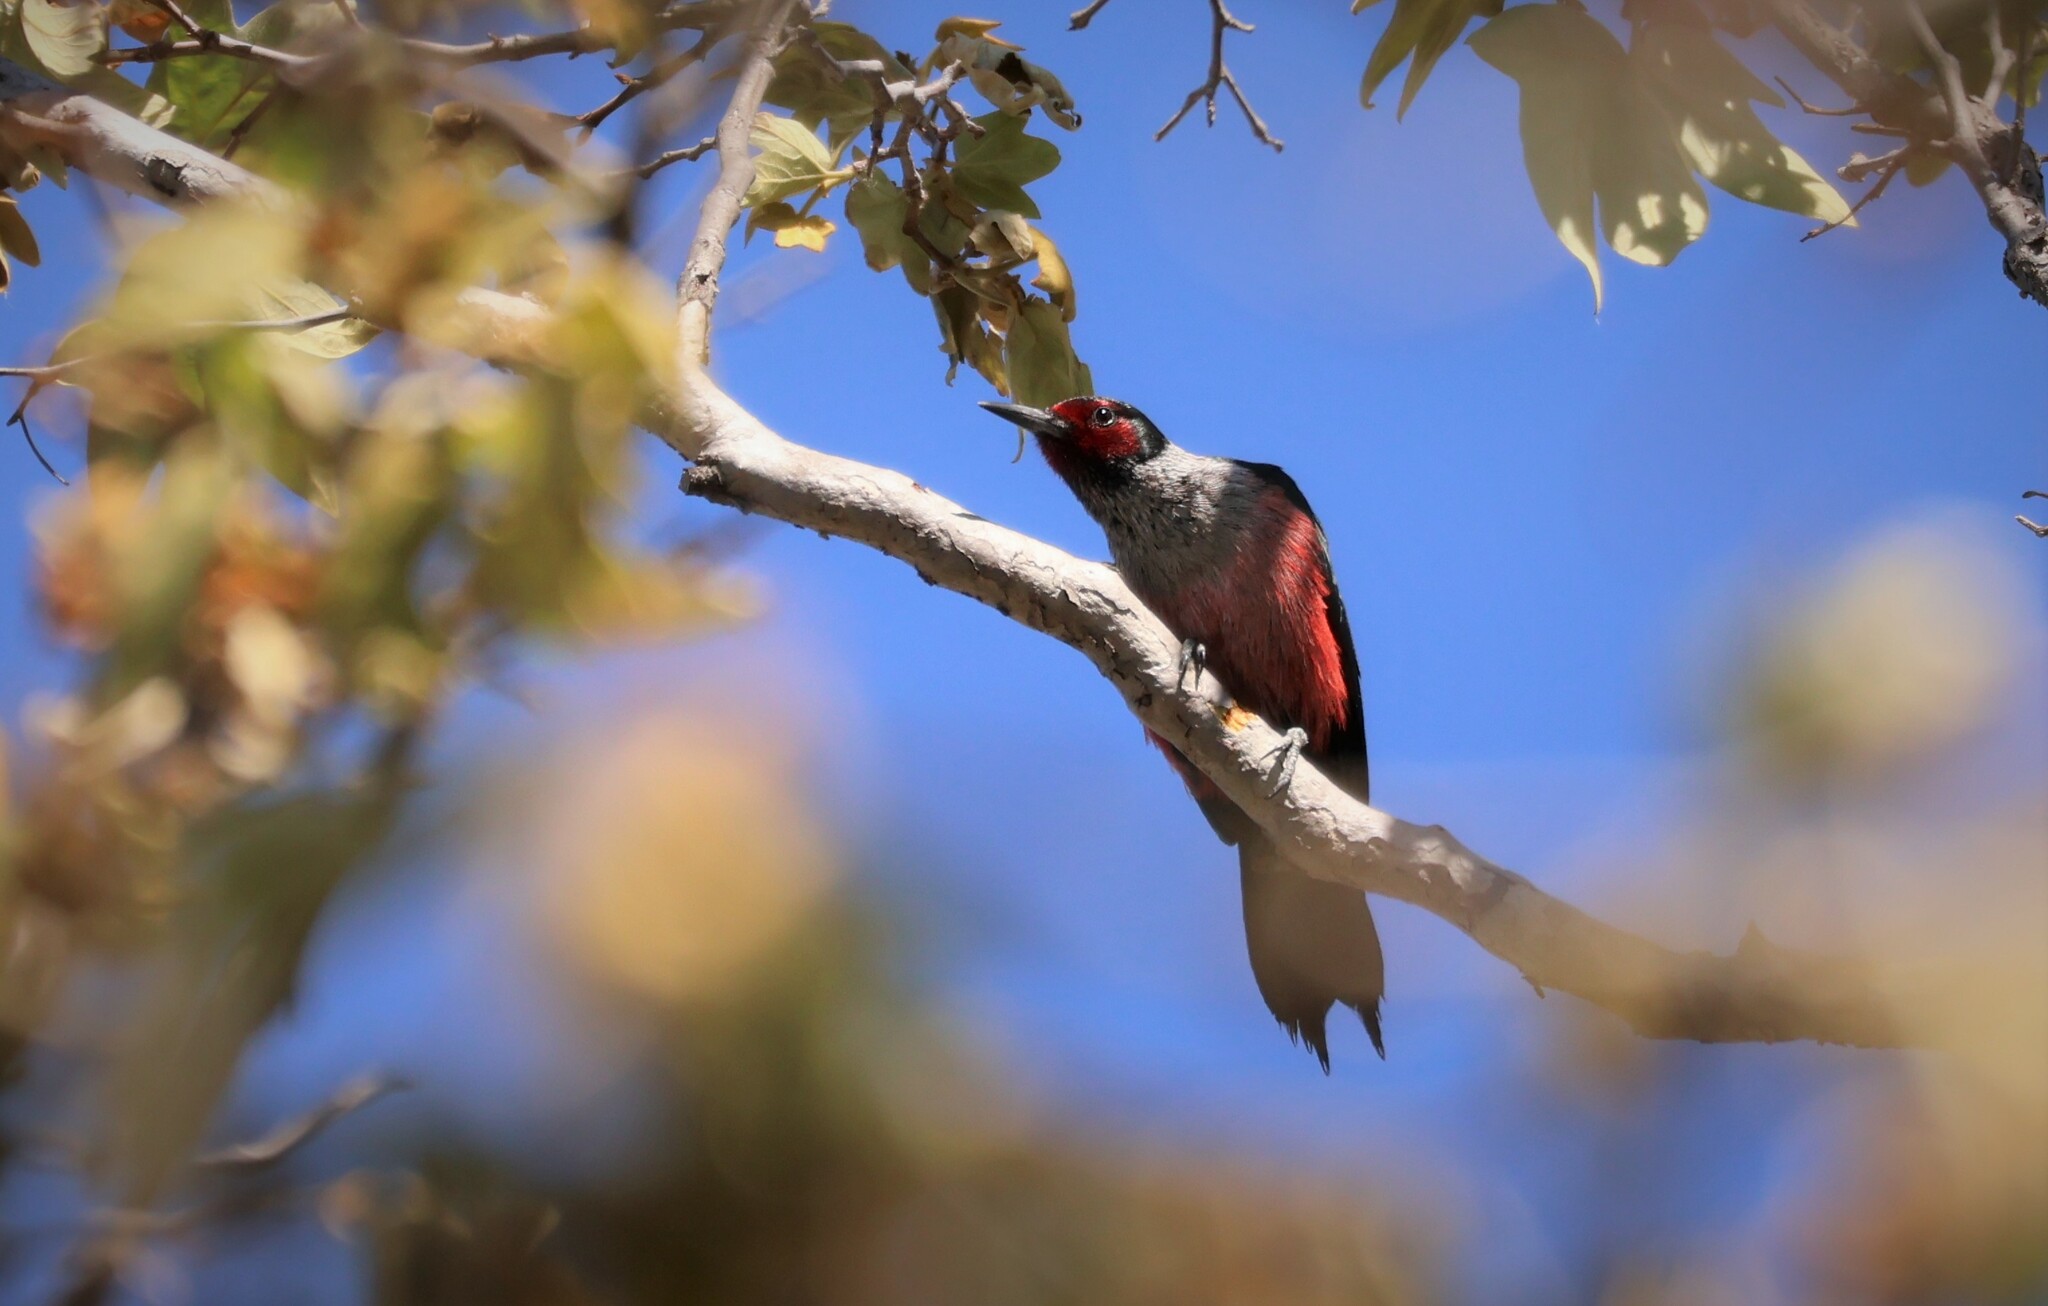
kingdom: Animalia
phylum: Chordata
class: Aves
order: Piciformes
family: Picidae
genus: Melanerpes
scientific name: Melanerpes lewis
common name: Lewis's woodpecker
